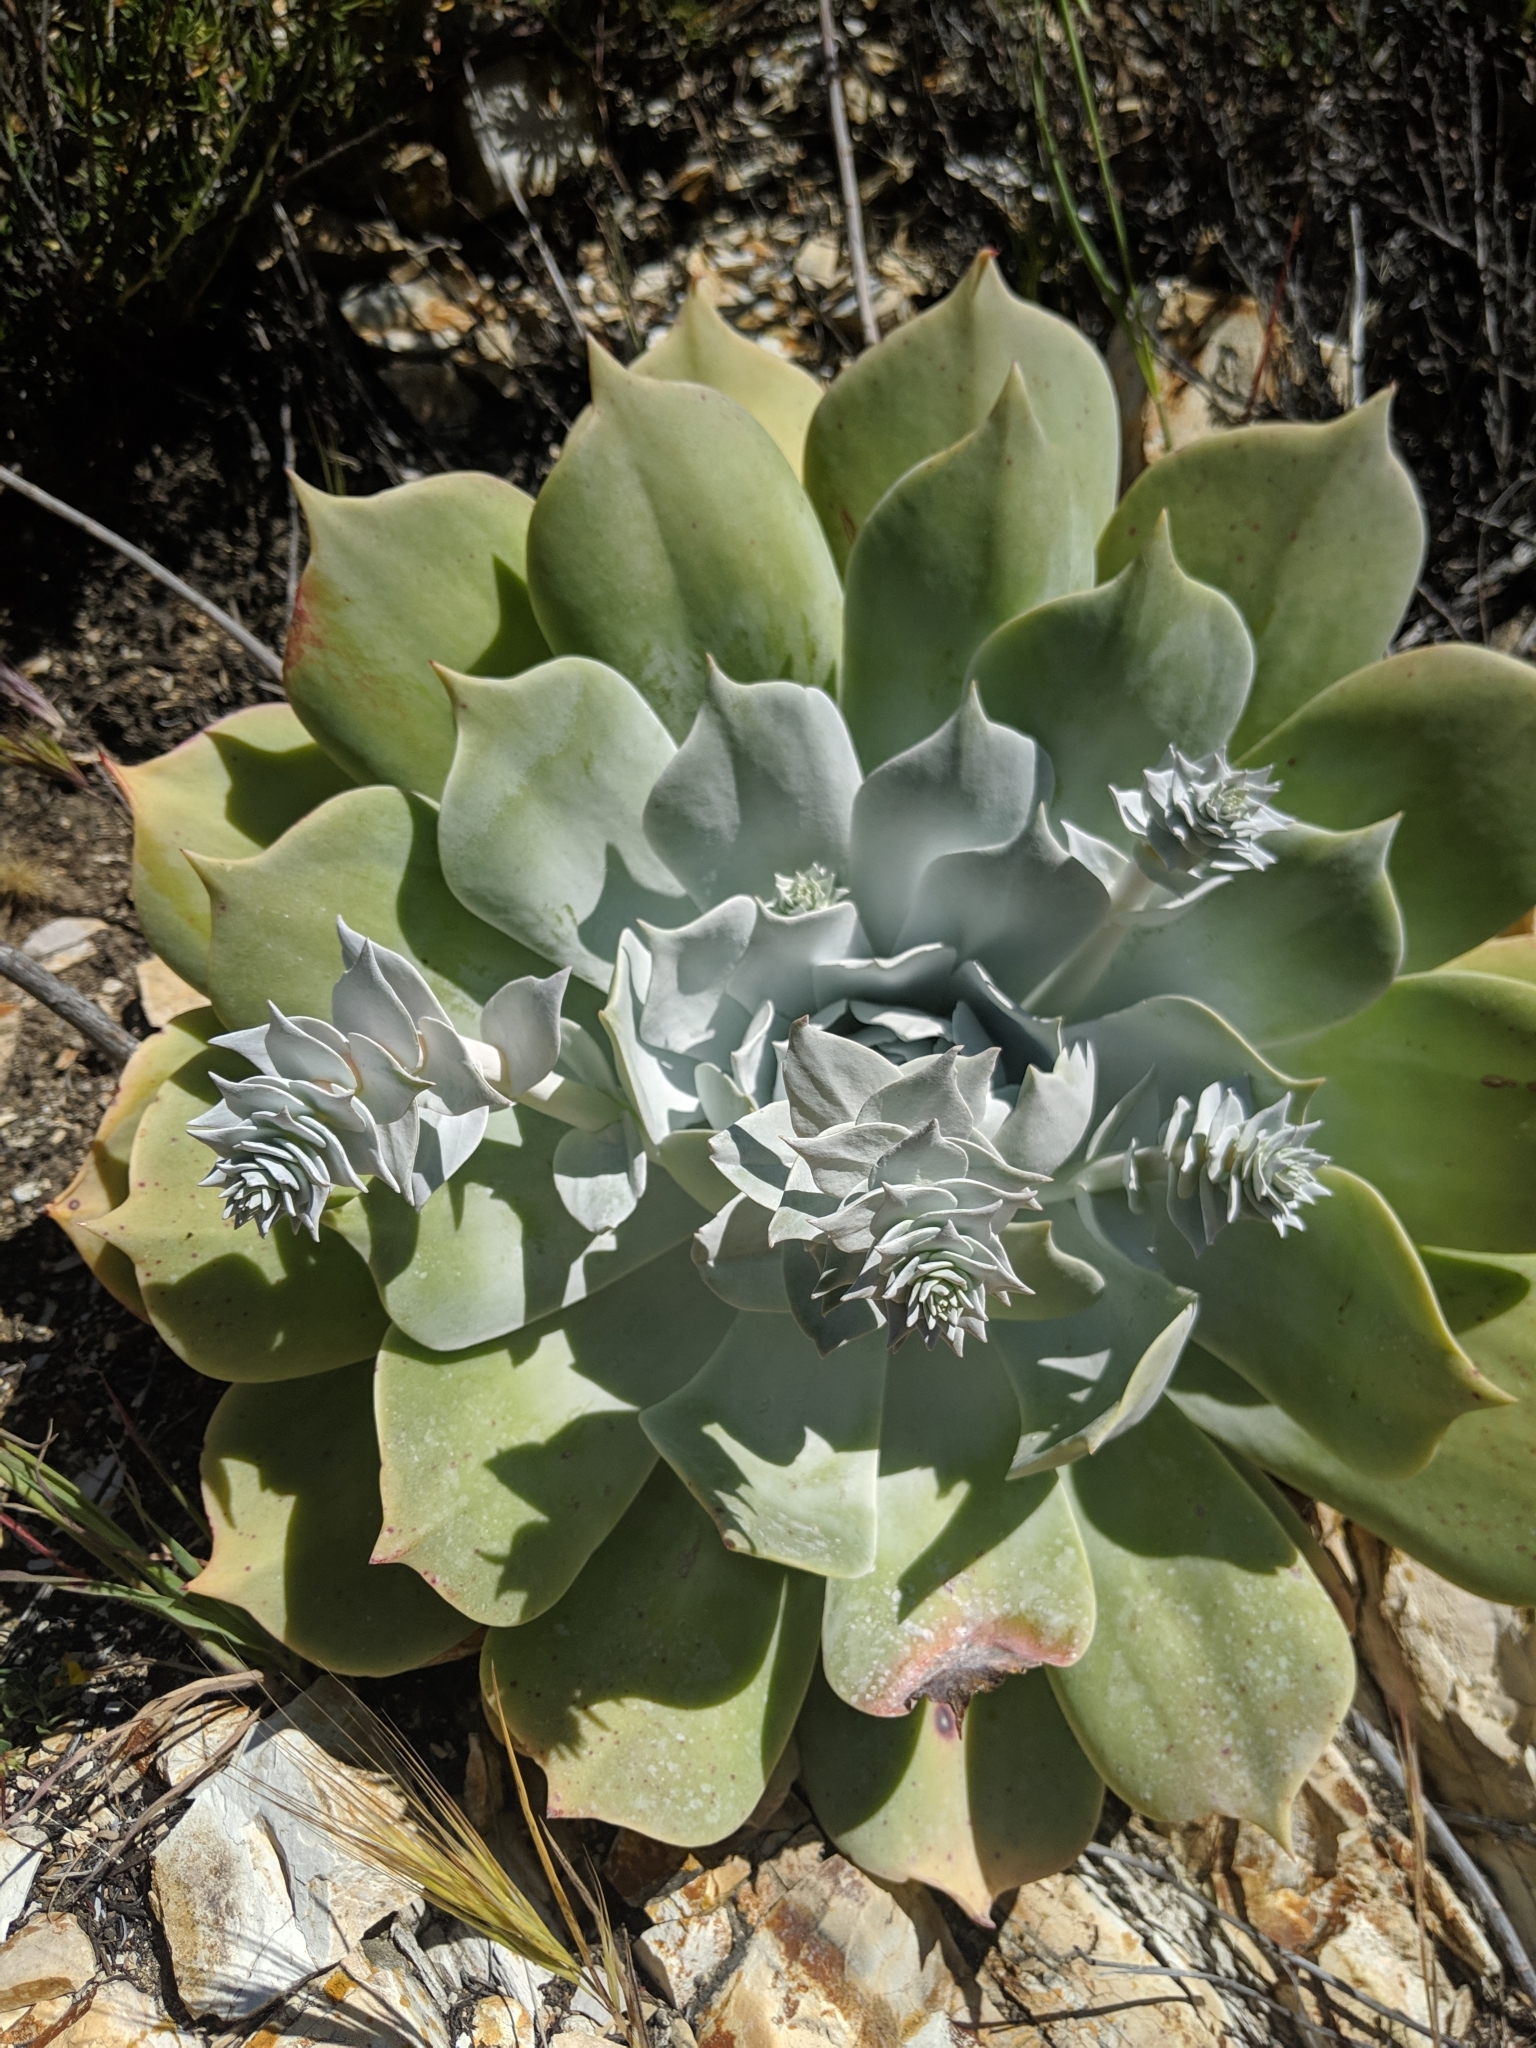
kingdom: Plantae
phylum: Tracheophyta
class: Magnoliopsida
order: Saxifragales
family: Crassulaceae
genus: Dudleya
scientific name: Dudleya pulverulenta
